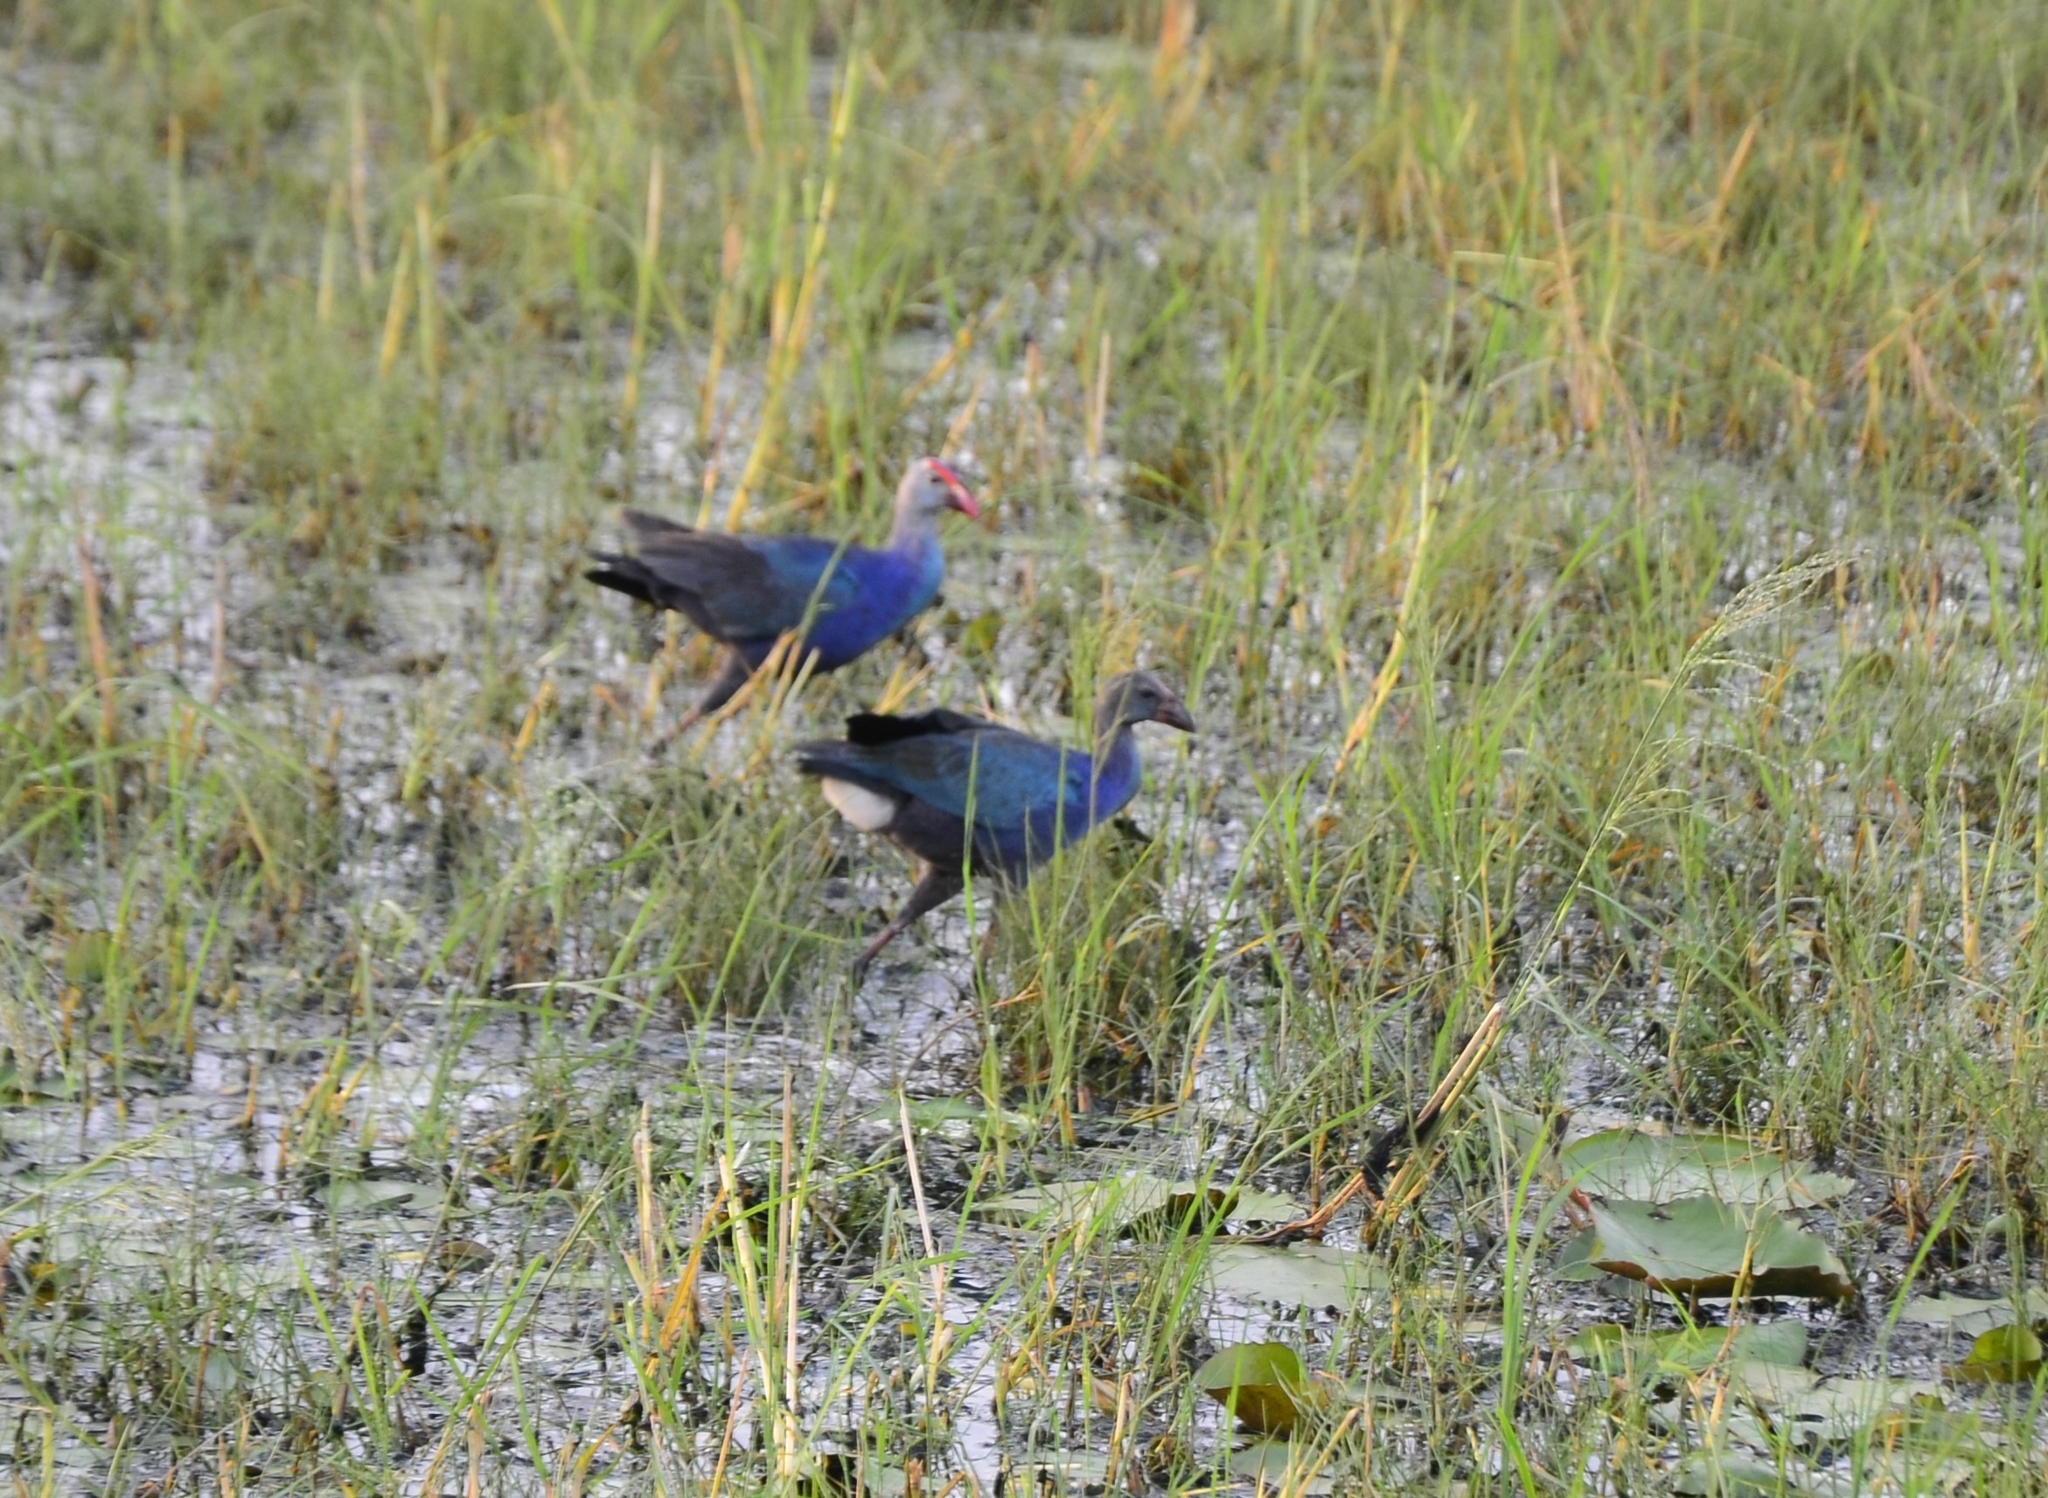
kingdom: Animalia
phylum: Chordata
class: Aves
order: Gruiformes
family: Rallidae
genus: Porphyrio
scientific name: Porphyrio porphyrio
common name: Purple swamphen
